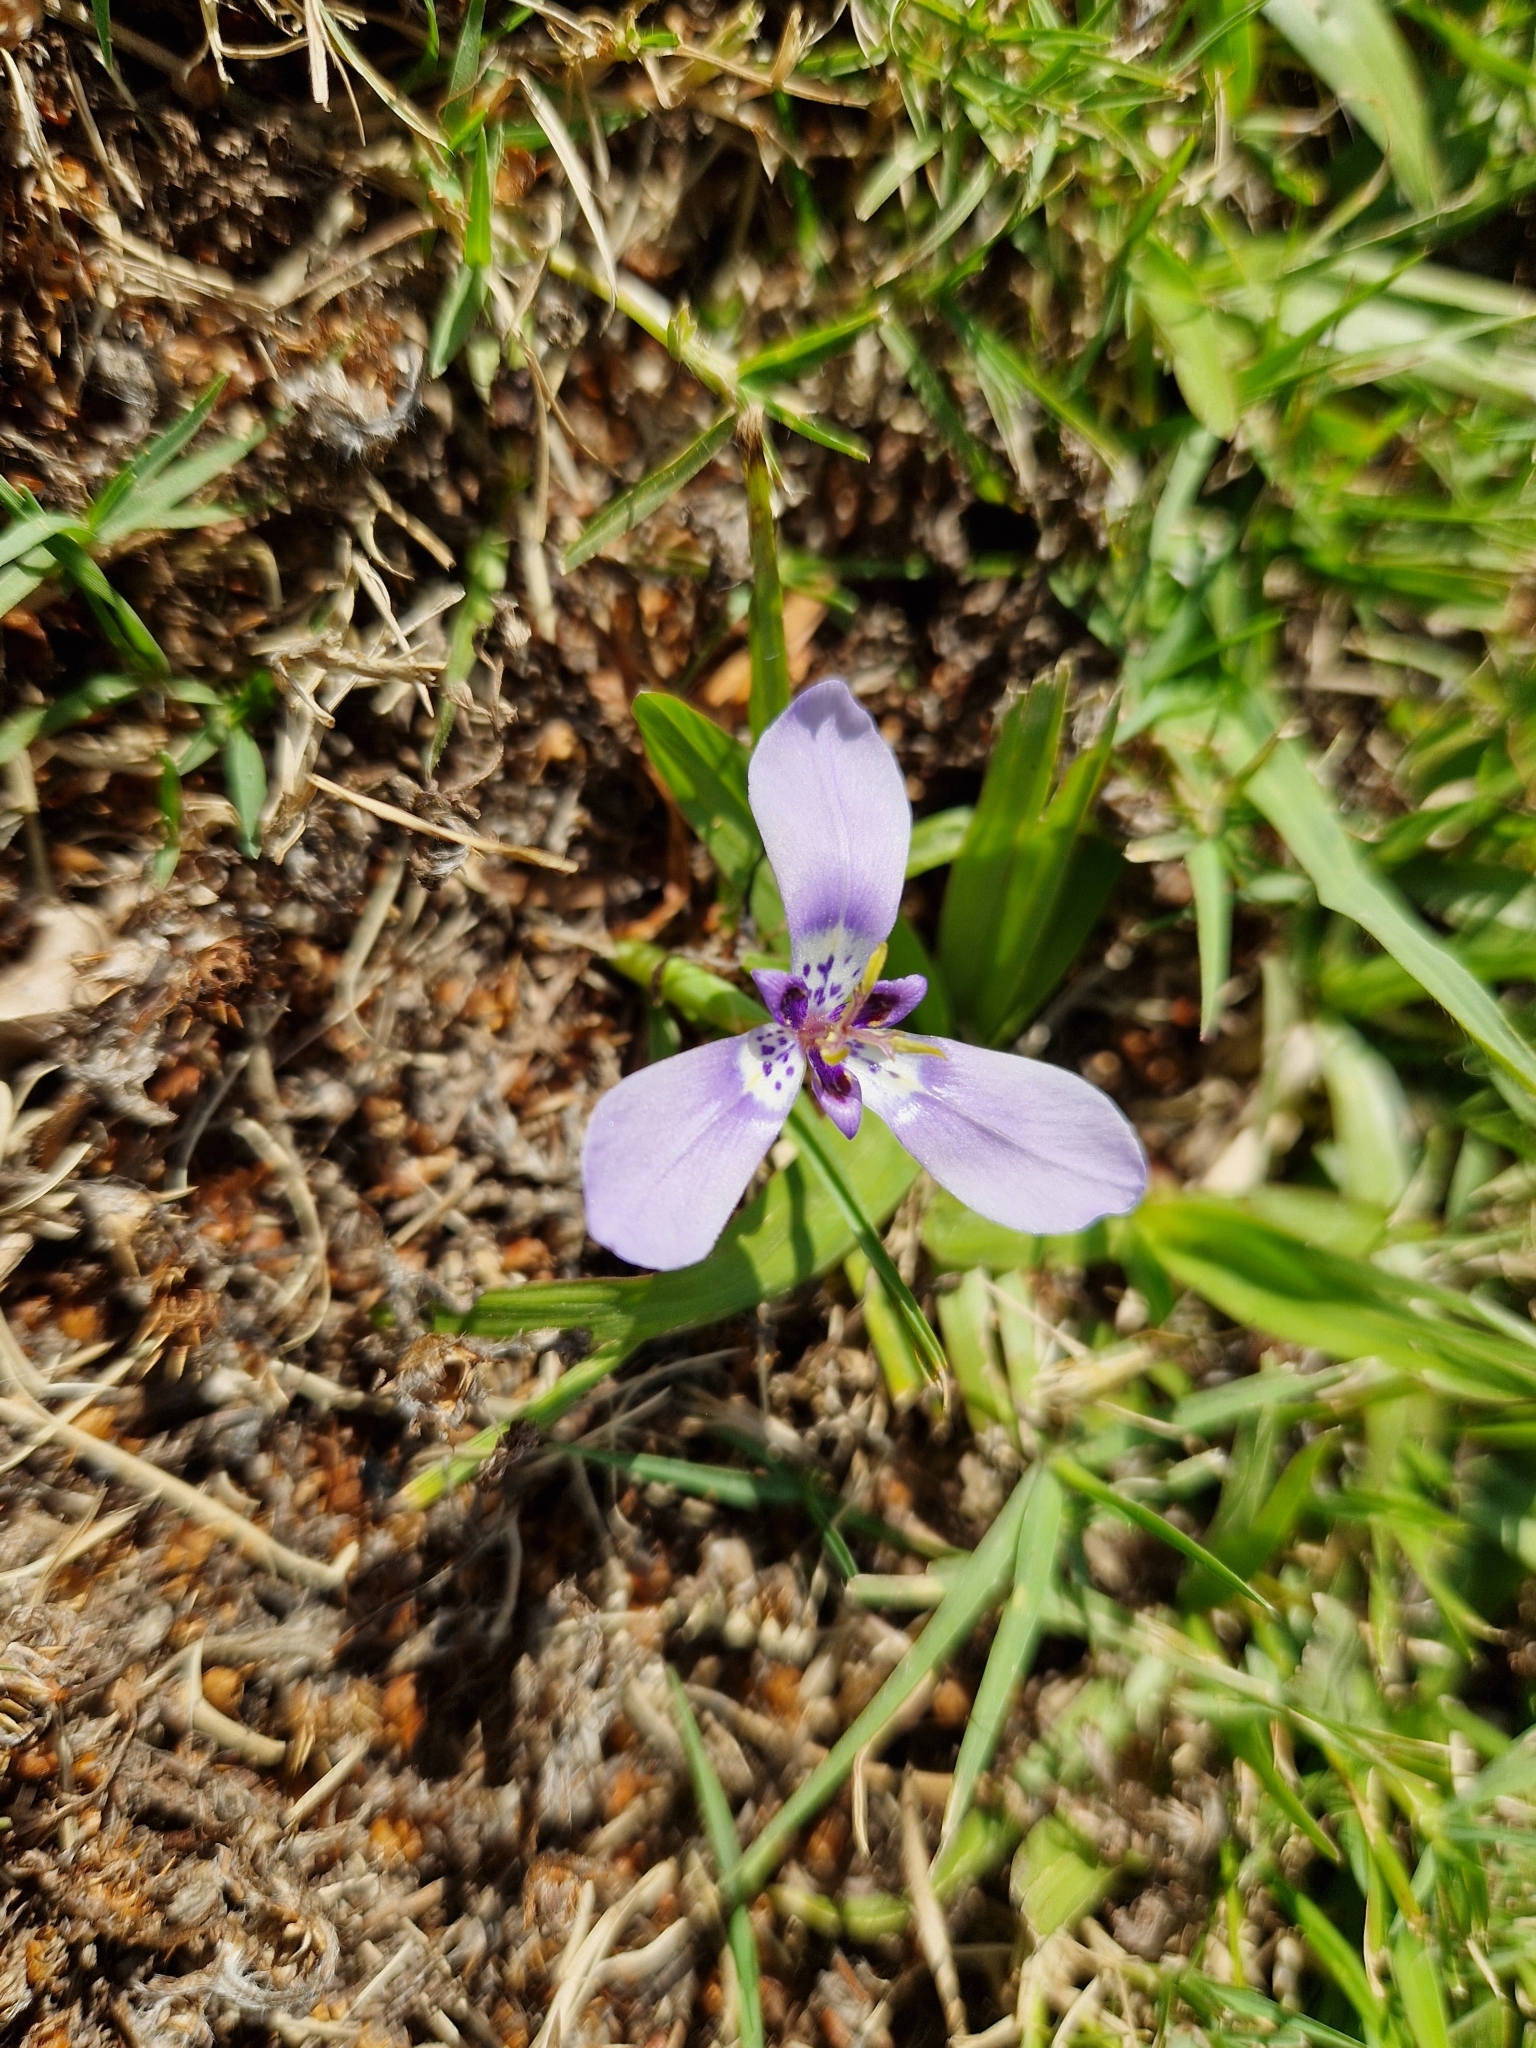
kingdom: Plantae
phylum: Tracheophyta
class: Liliopsida
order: Asparagales
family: Iridaceae
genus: Herbertia
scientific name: Herbertia lahue
